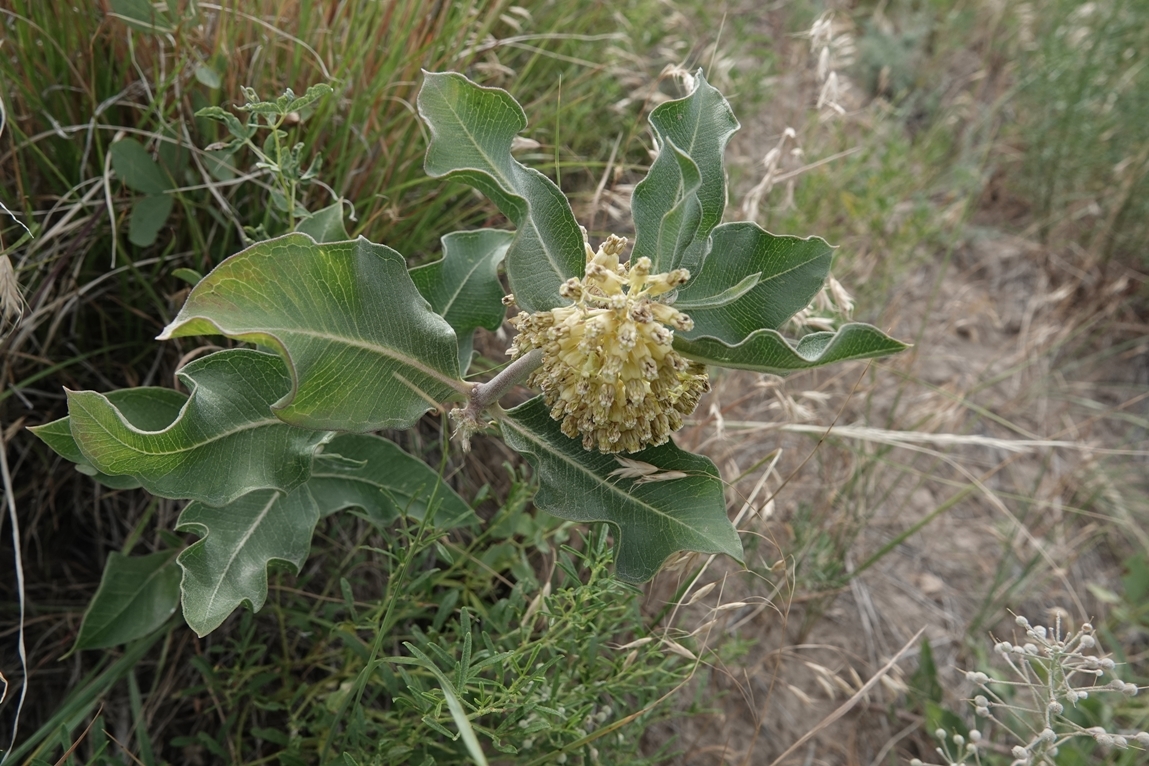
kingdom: Plantae
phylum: Tracheophyta
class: Magnoliopsida
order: Gentianales
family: Apocynaceae
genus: Asclepias
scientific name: Asclepias viridiflora
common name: Green comet milkweed
